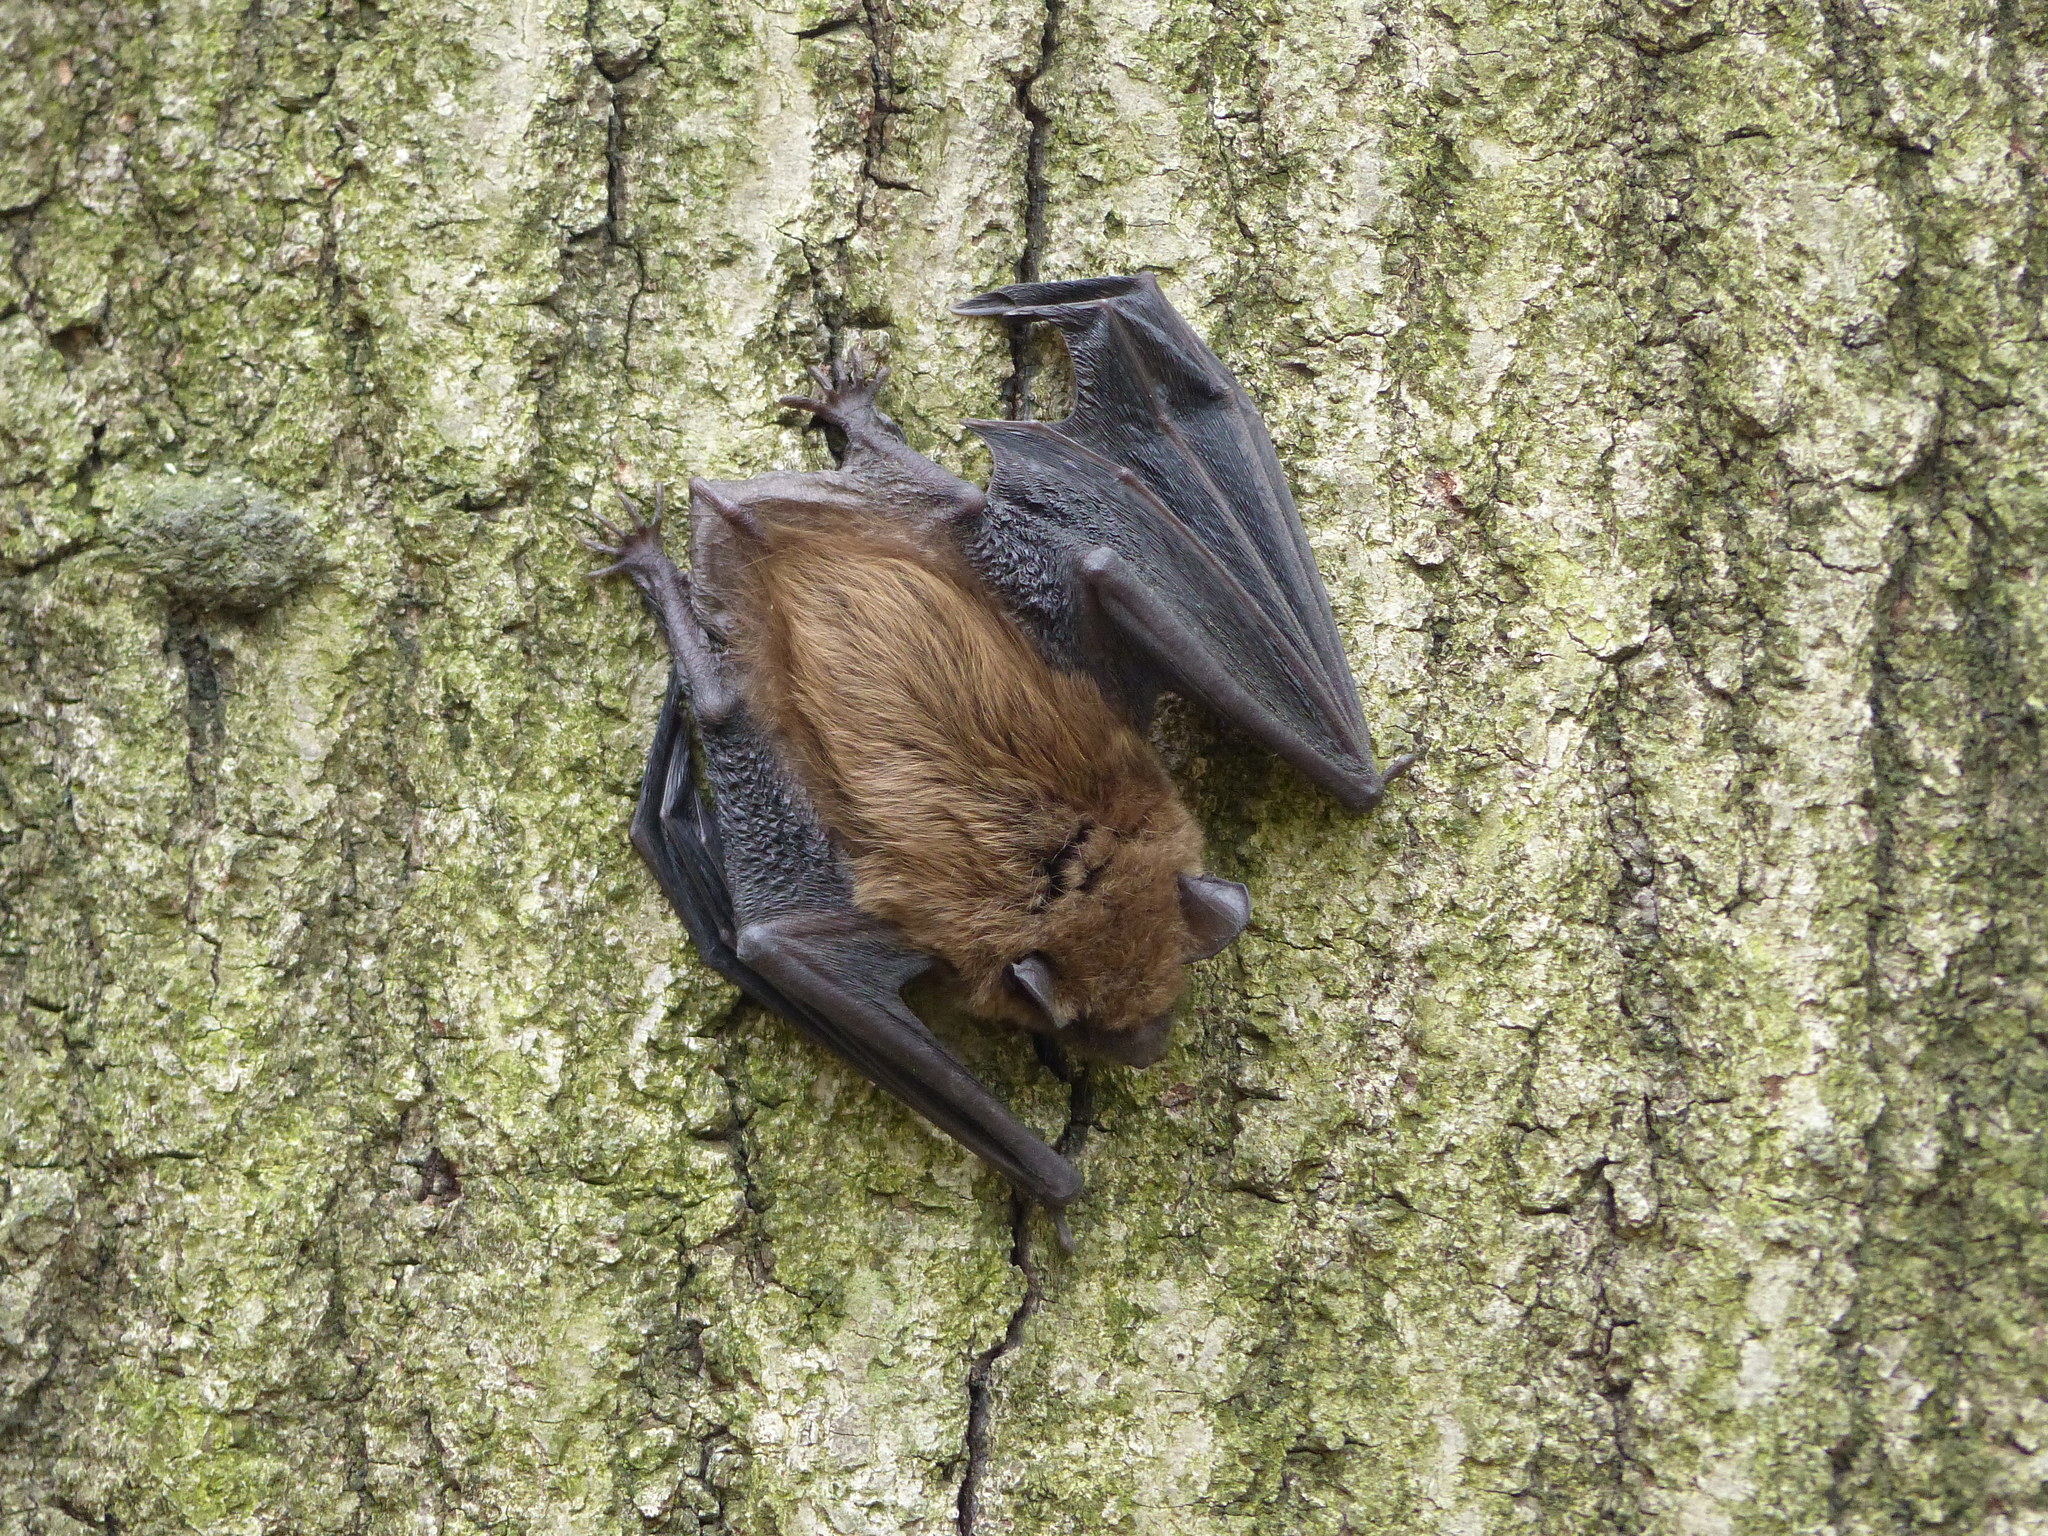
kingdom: Animalia
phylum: Chordata
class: Mammalia
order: Chiroptera
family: Vespertilionidae
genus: Eptesicus
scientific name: Eptesicus fuscus
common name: Big brown bat
